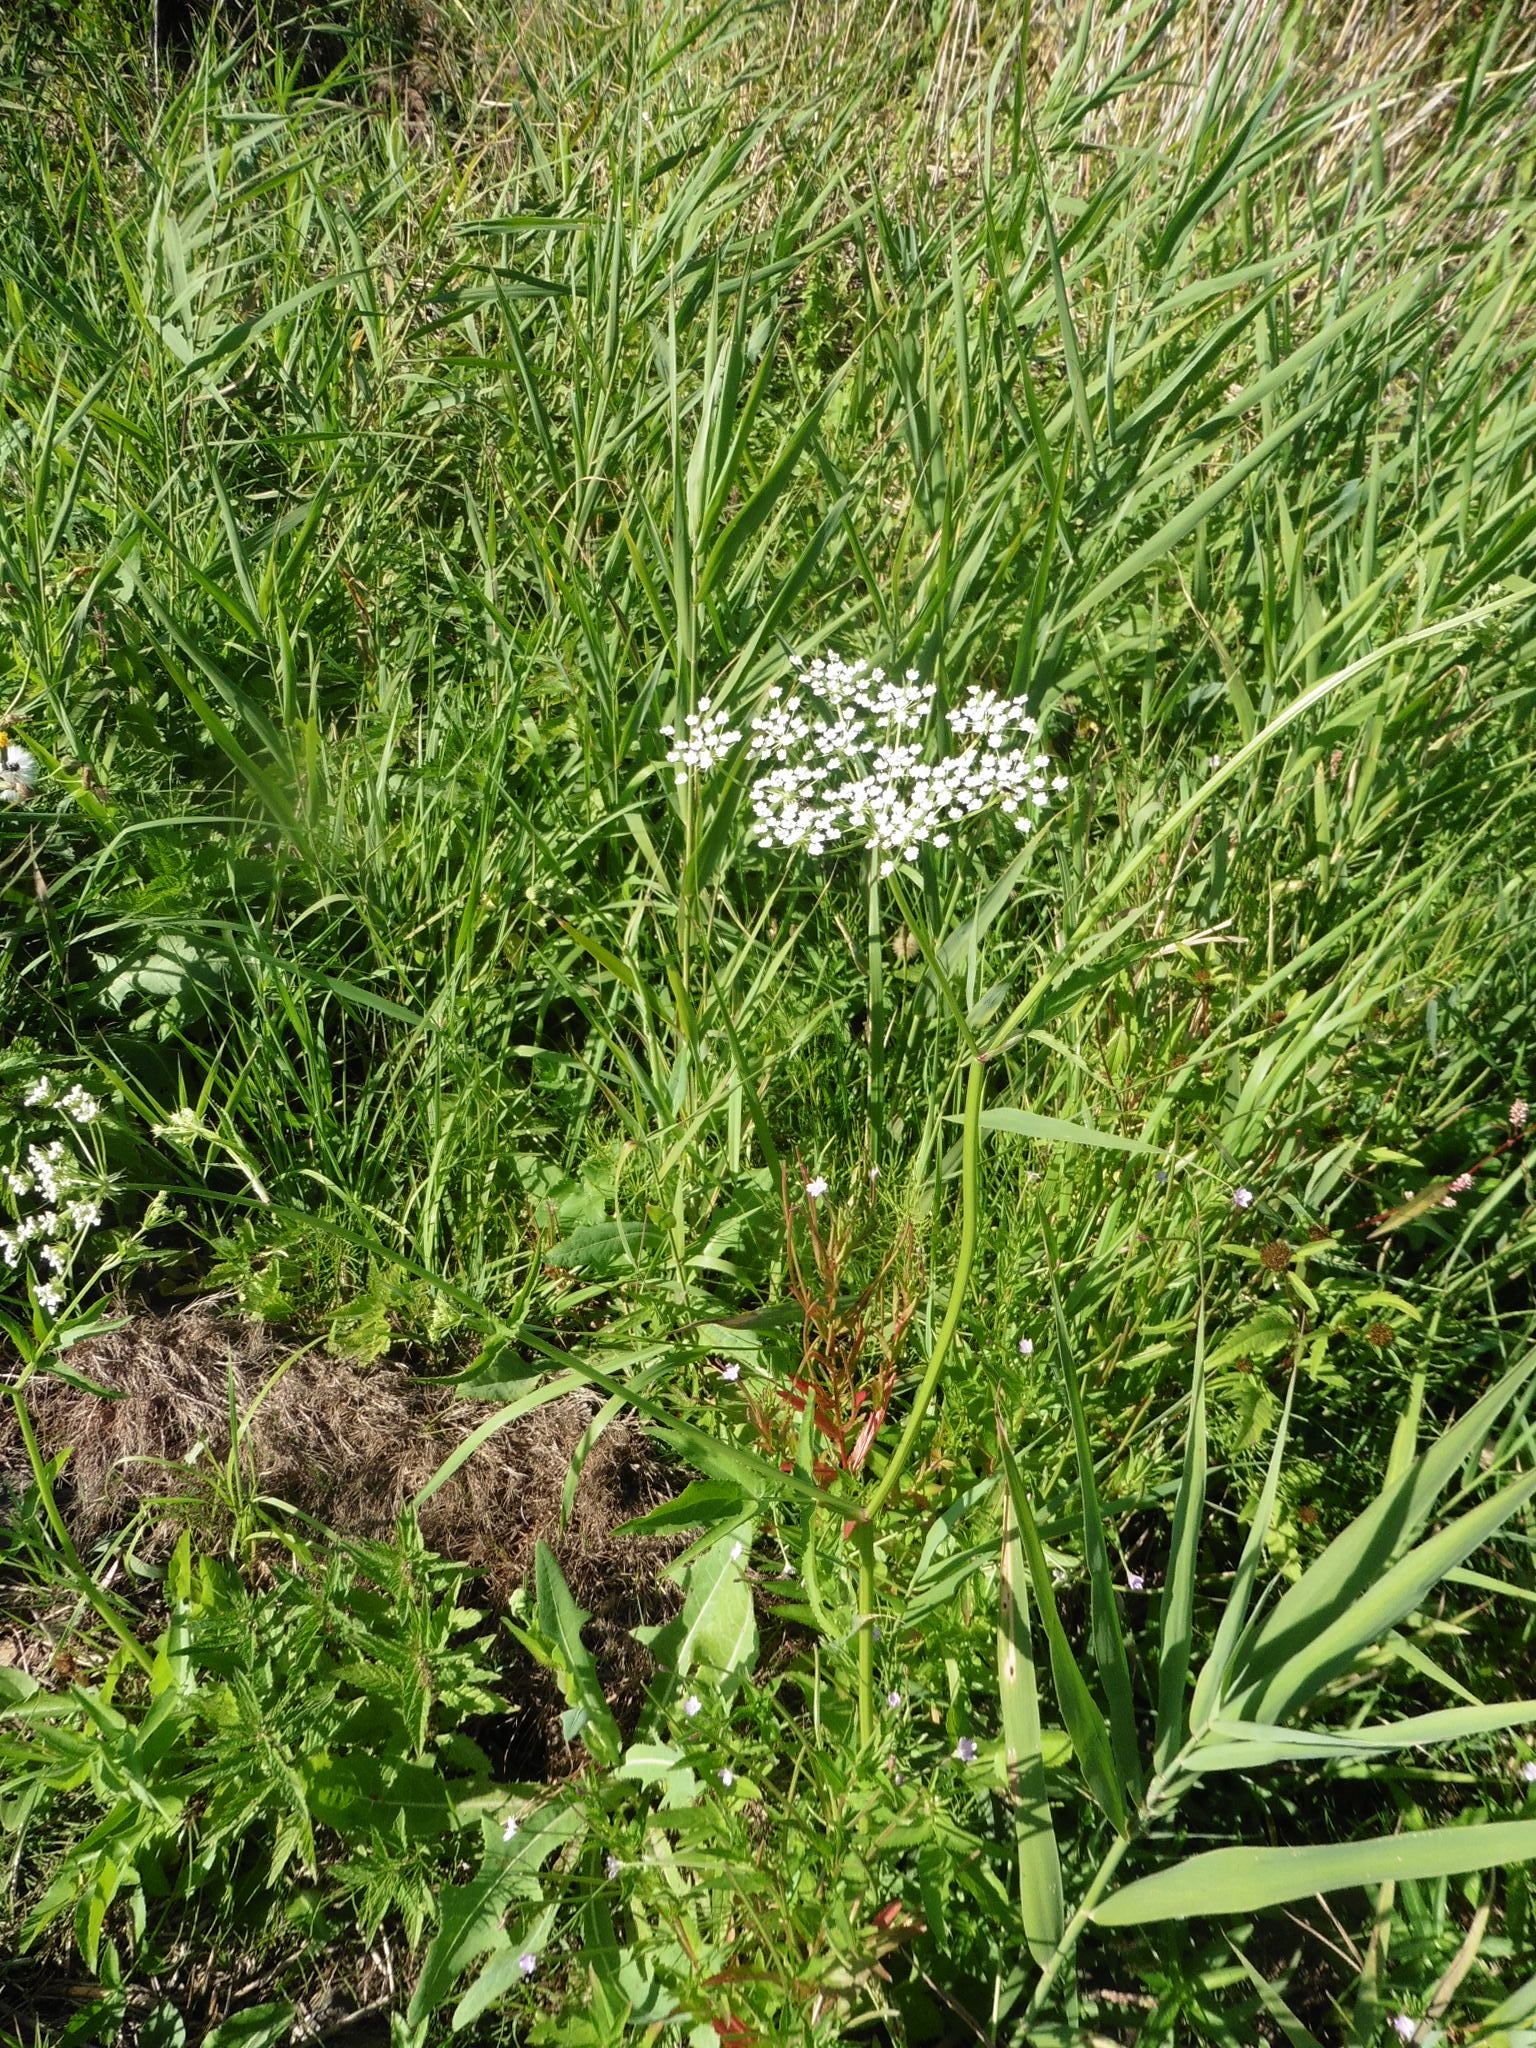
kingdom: Plantae
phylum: Tracheophyta
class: Magnoliopsida
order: Apiales
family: Apiaceae
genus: Sium
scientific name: Sium sisarum
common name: Skirret
